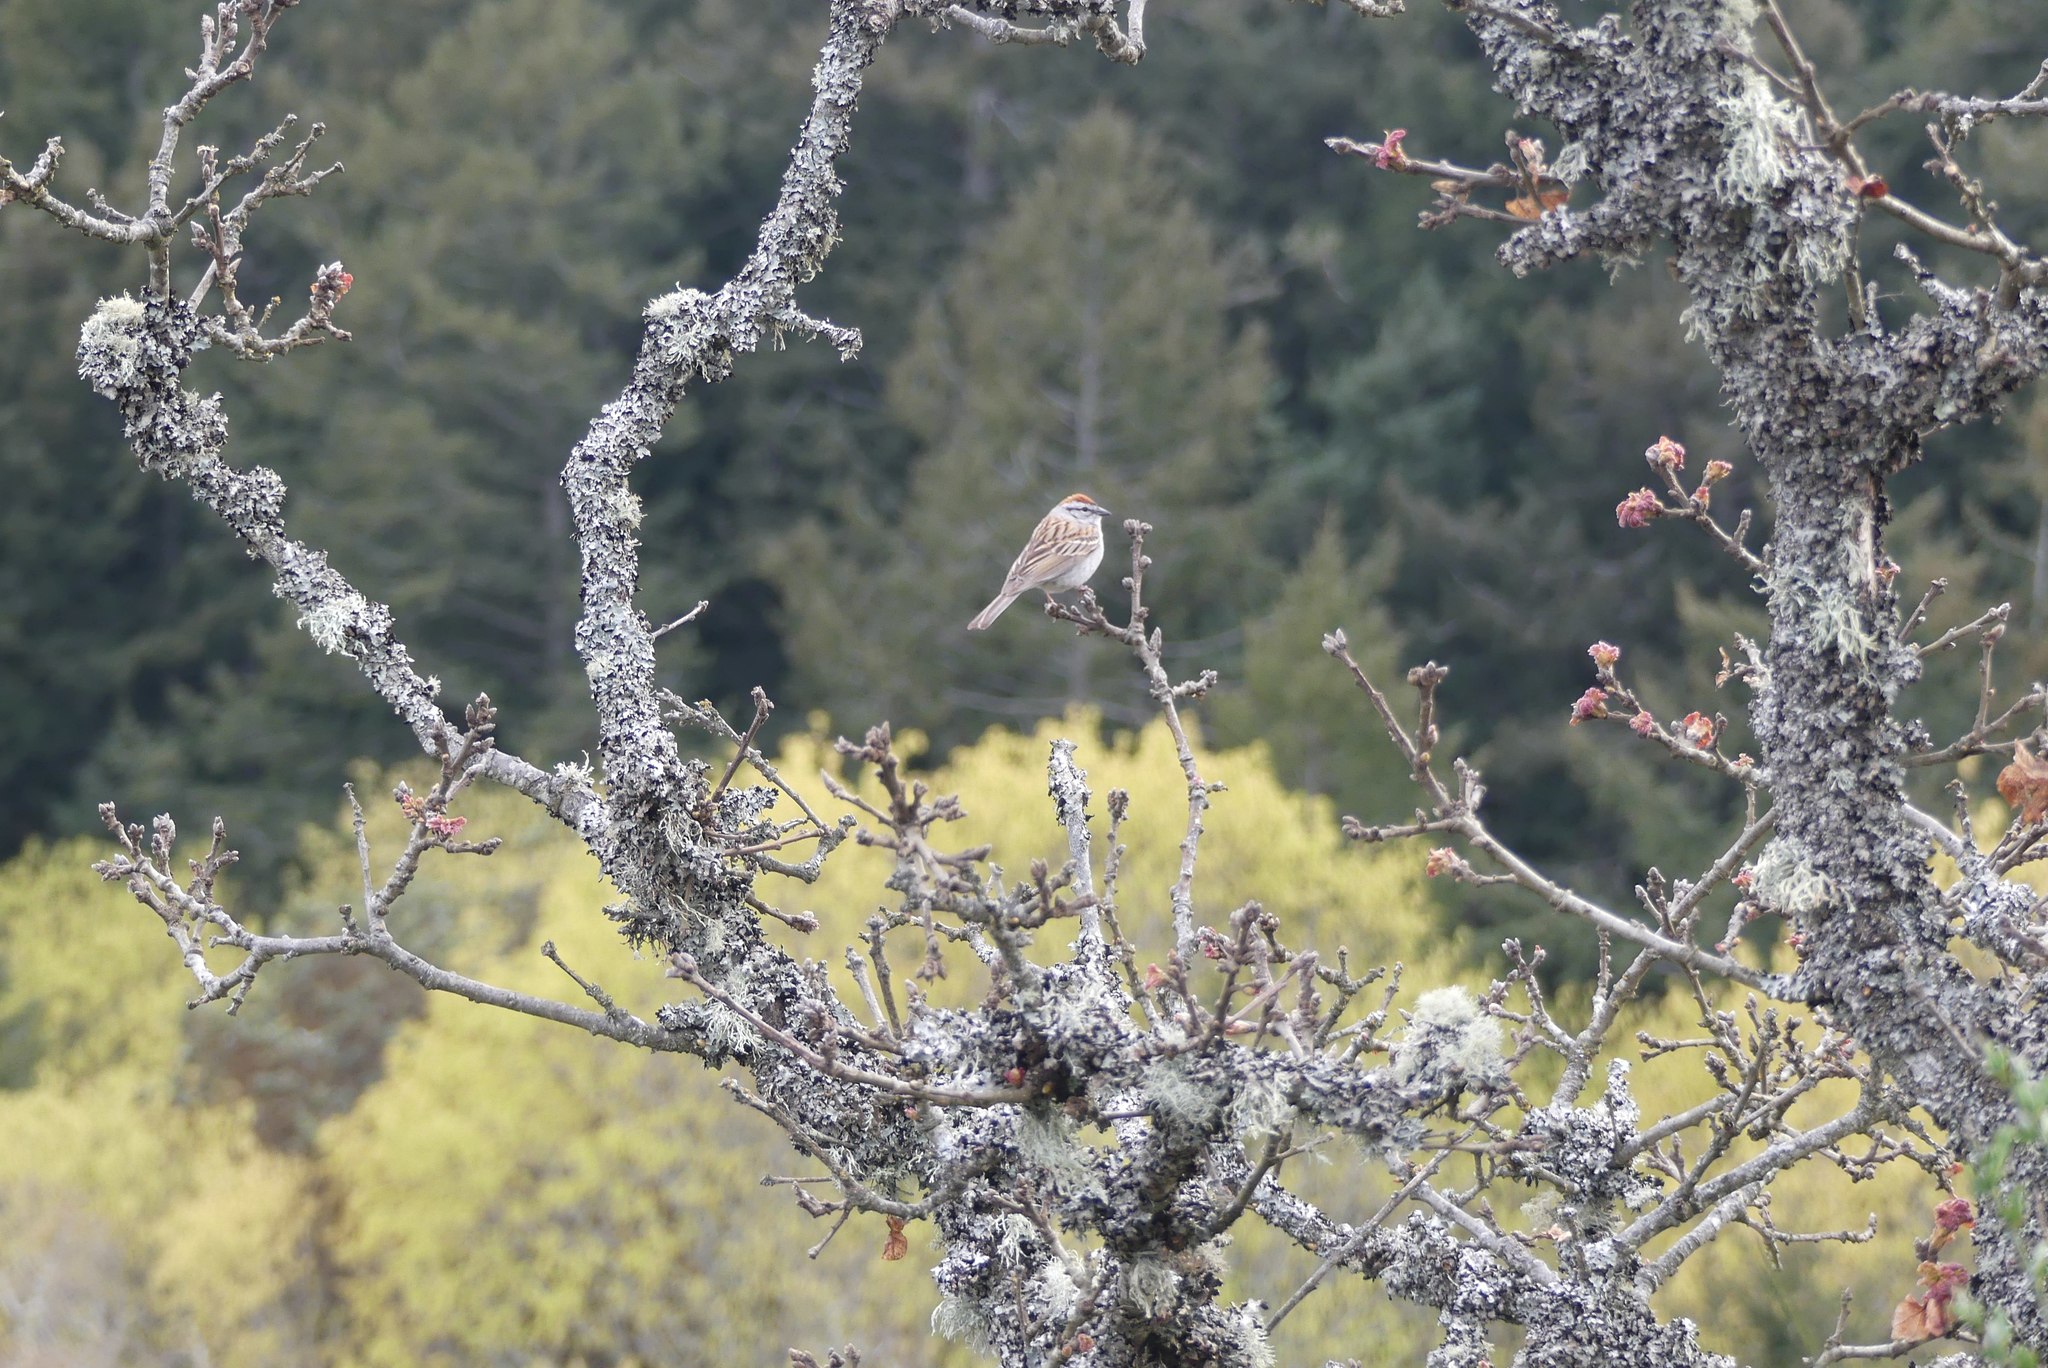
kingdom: Animalia
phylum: Chordata
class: Aves
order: Passeriformes
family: Passerellidae
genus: Spizella
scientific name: Spizella passerina
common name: Chipping sparrow
